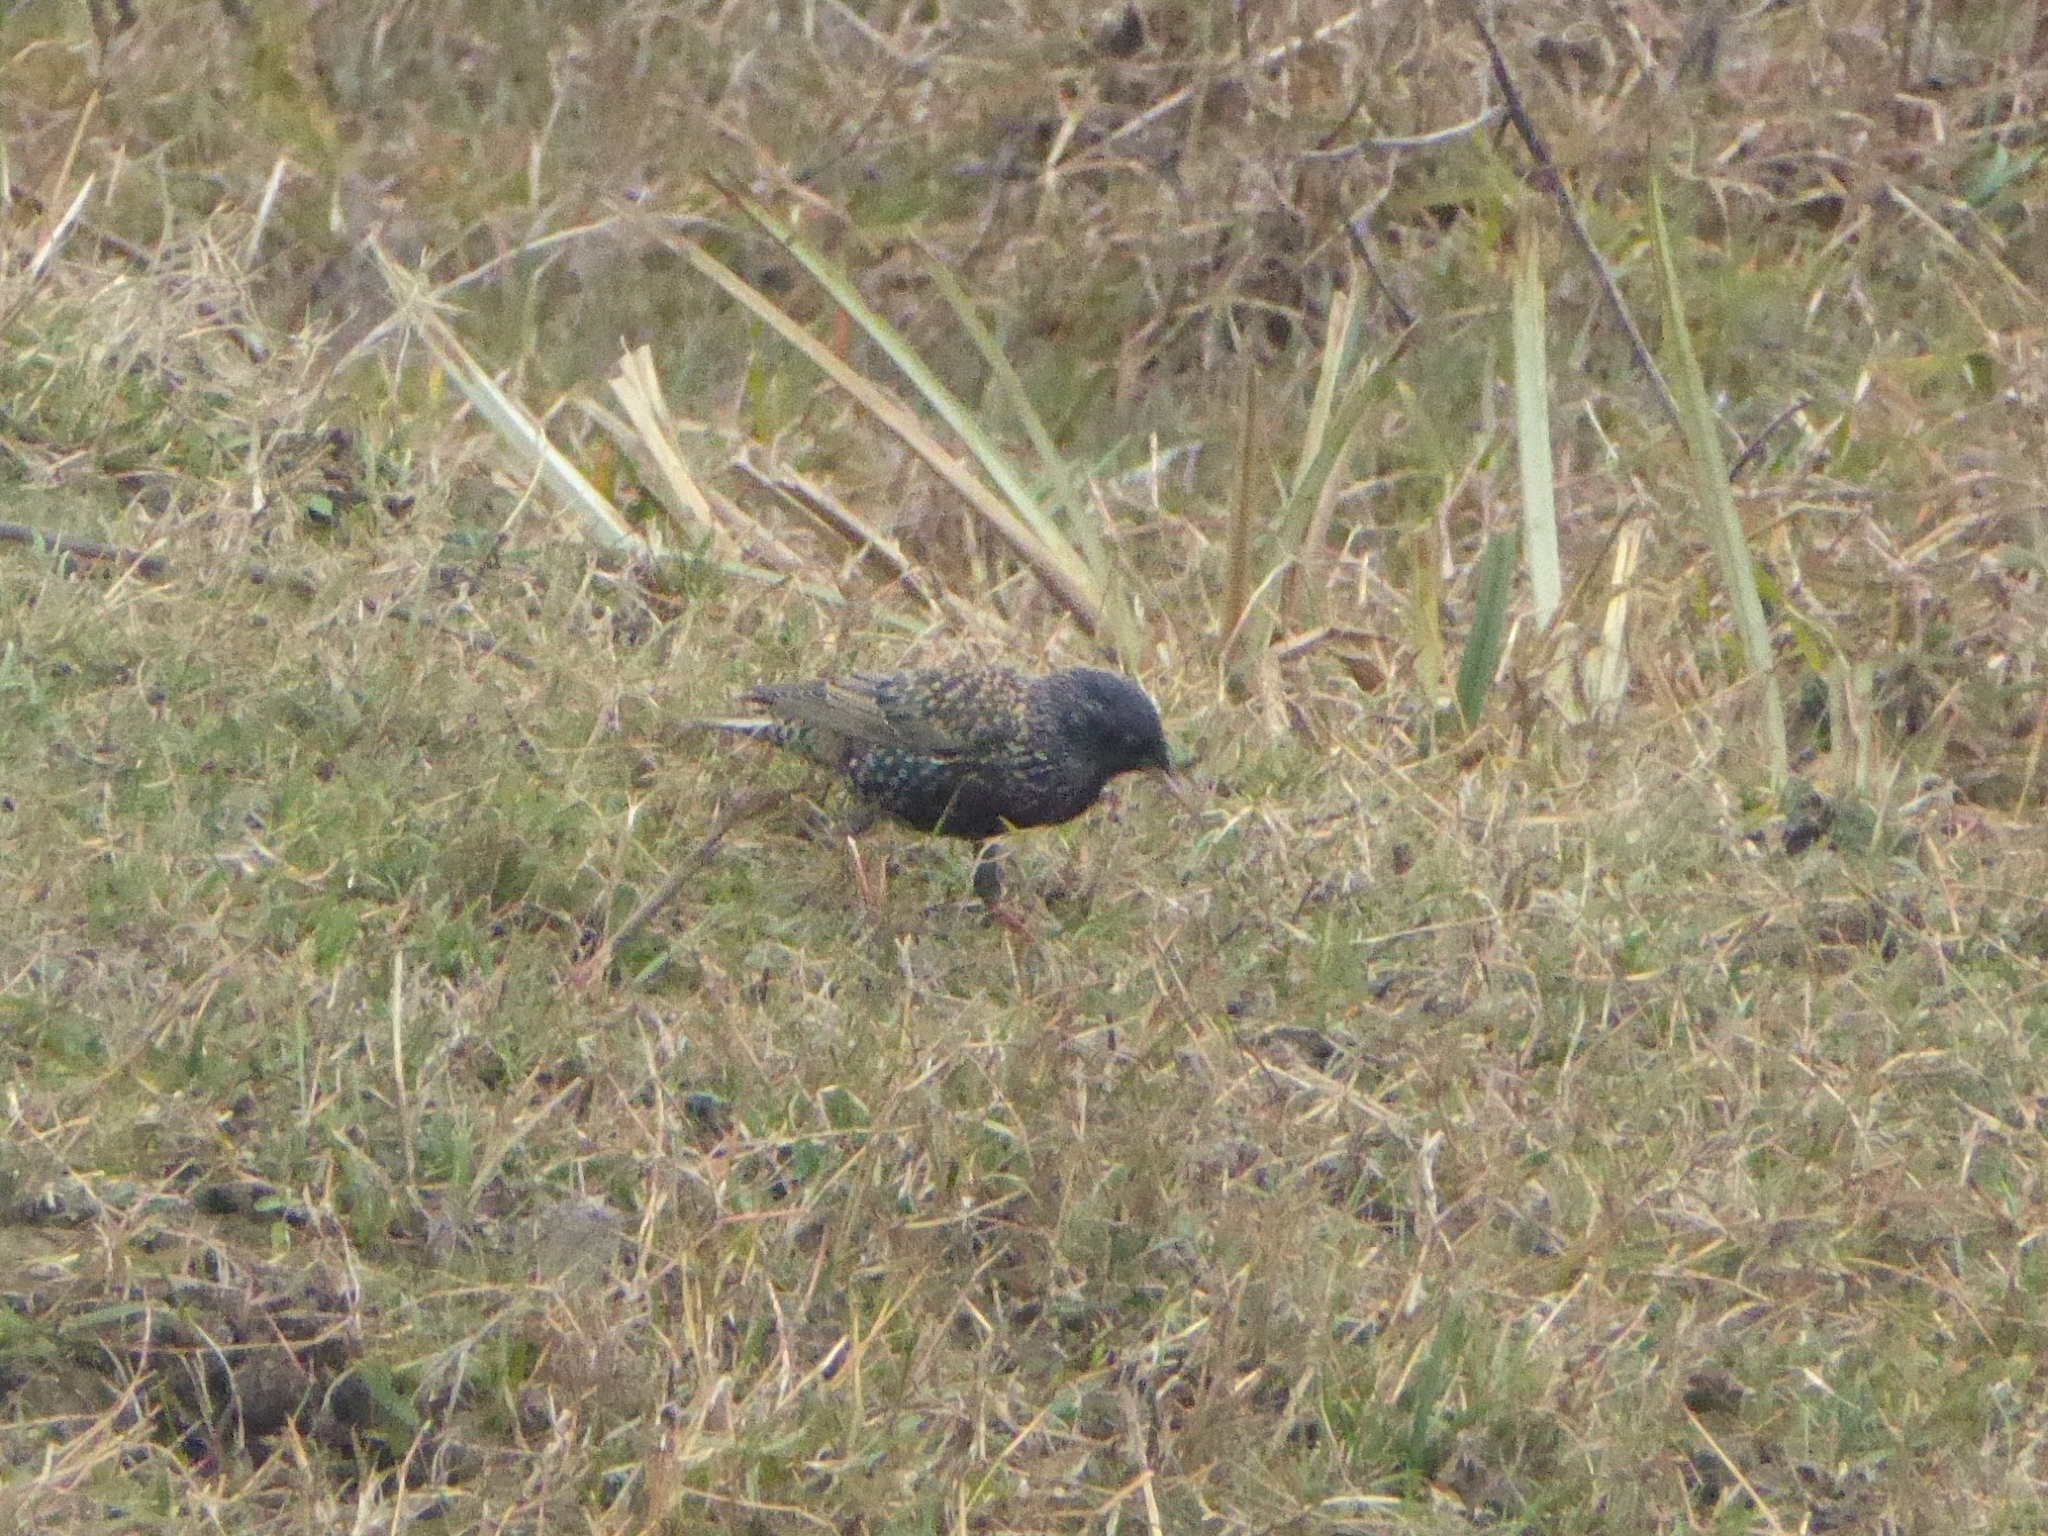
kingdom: Animalia
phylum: Chordata
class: Aves
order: Passeriformes
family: Sturnidae
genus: Sturnus
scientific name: Sturnus vulgaris
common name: Common starling
